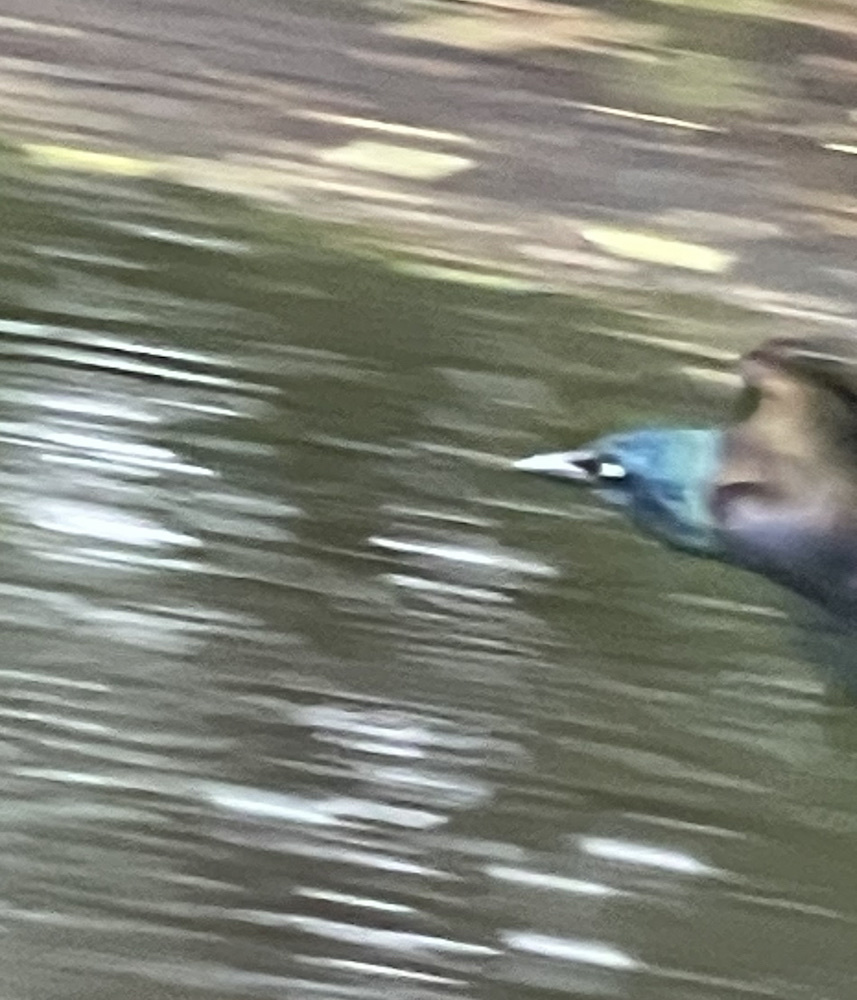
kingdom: Animalia
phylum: Chordata
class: Aves
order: Passeriformes
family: Icteridae
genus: Quiscalus
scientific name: Quiscalus quiscula
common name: Common grackle
